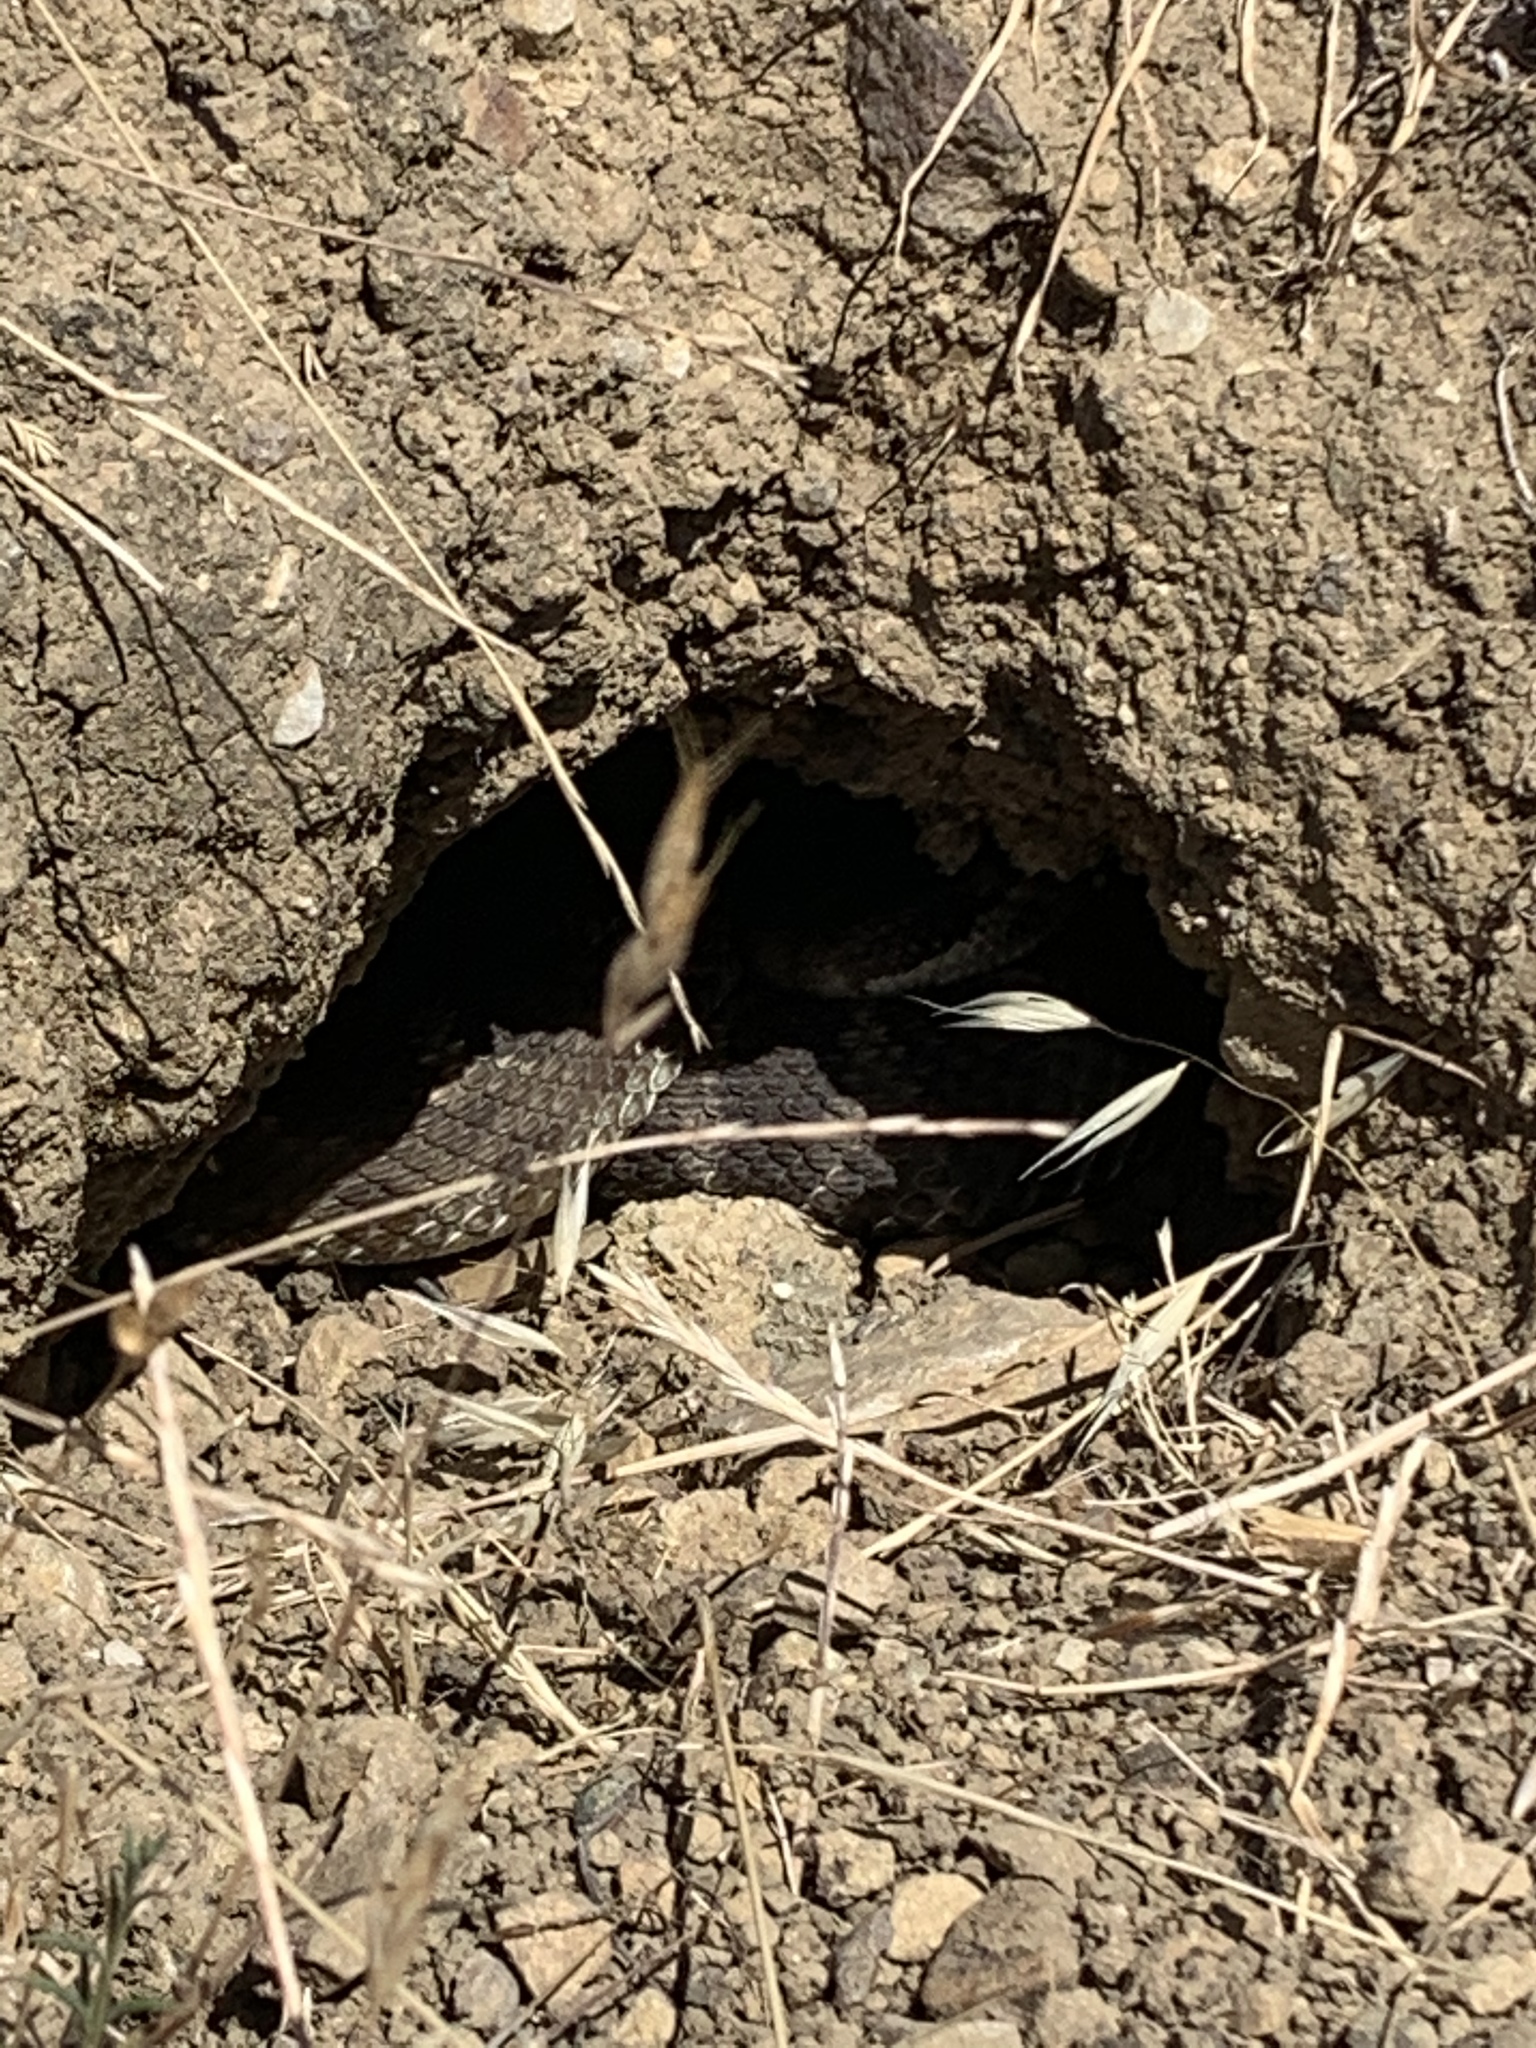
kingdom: Animalia
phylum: Chordata
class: Squamata
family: Viperidae
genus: Crotalus
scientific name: Crotalus oreganus
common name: Abyssus
